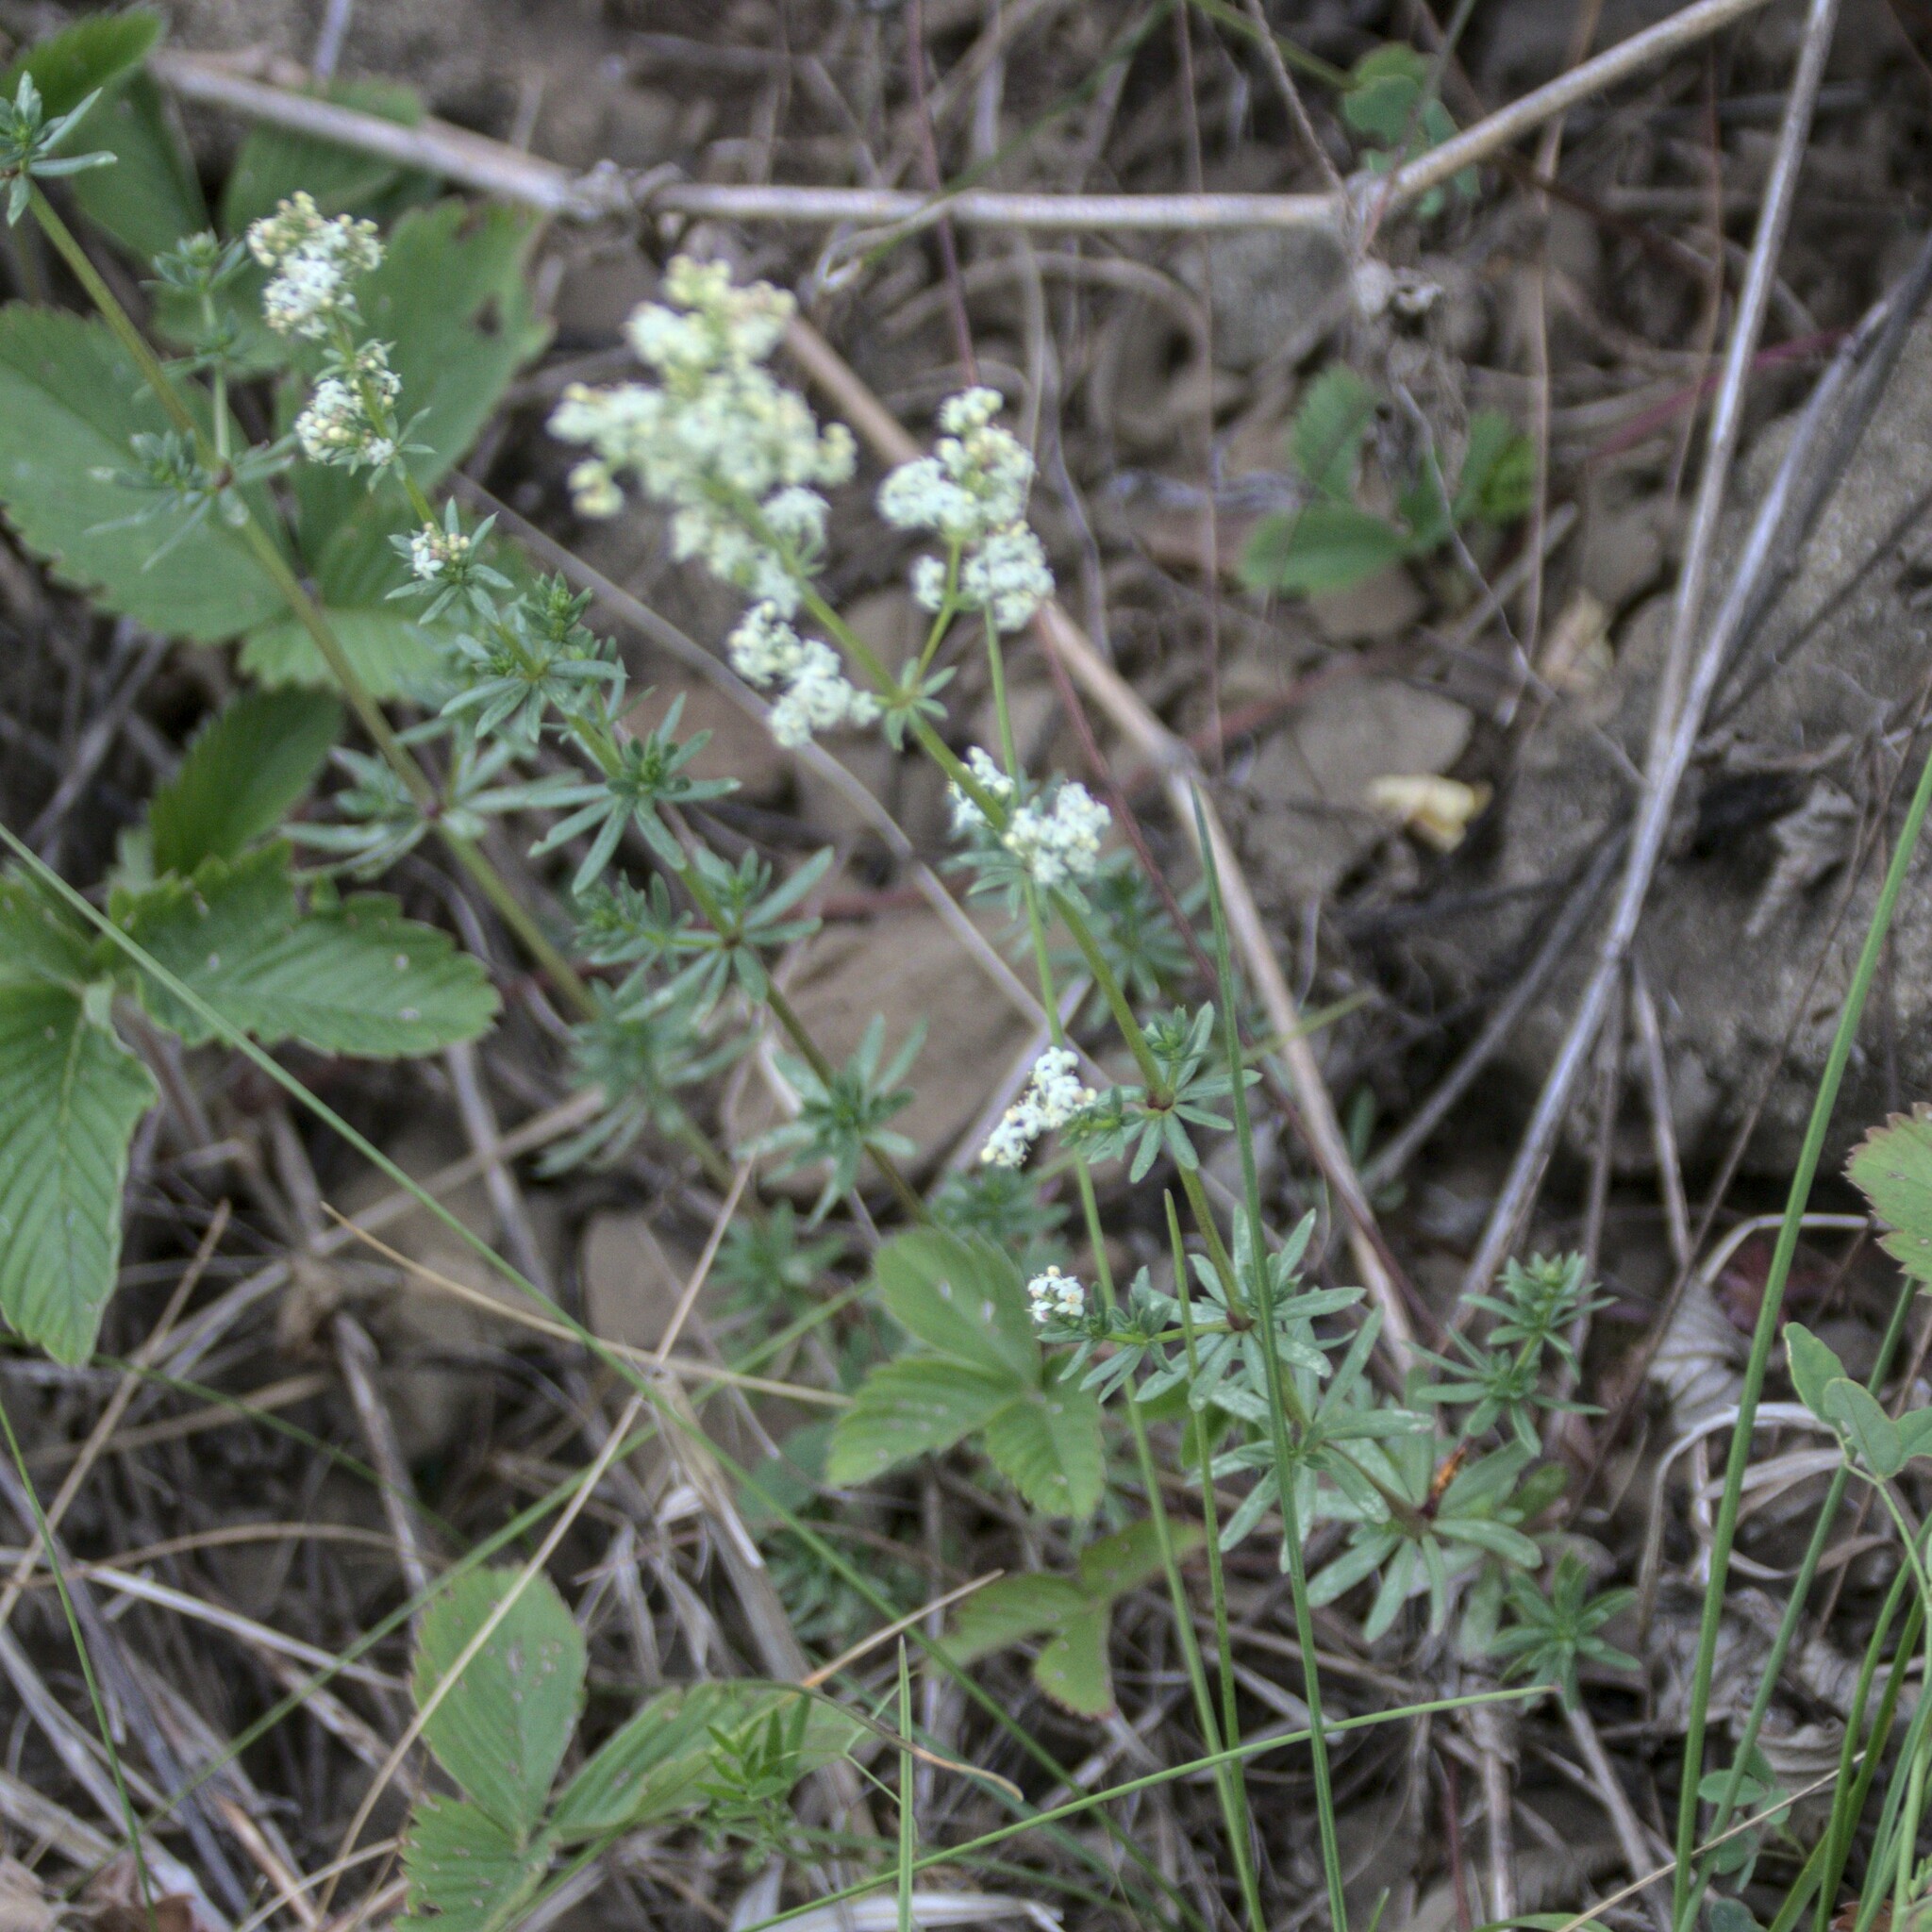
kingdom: Plantae
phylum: Tracheophyta
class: Magnoliopsida
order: Gentianales
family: Rubiaceae
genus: Galium
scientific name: Galium mollugo
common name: Hedge bedstraw
